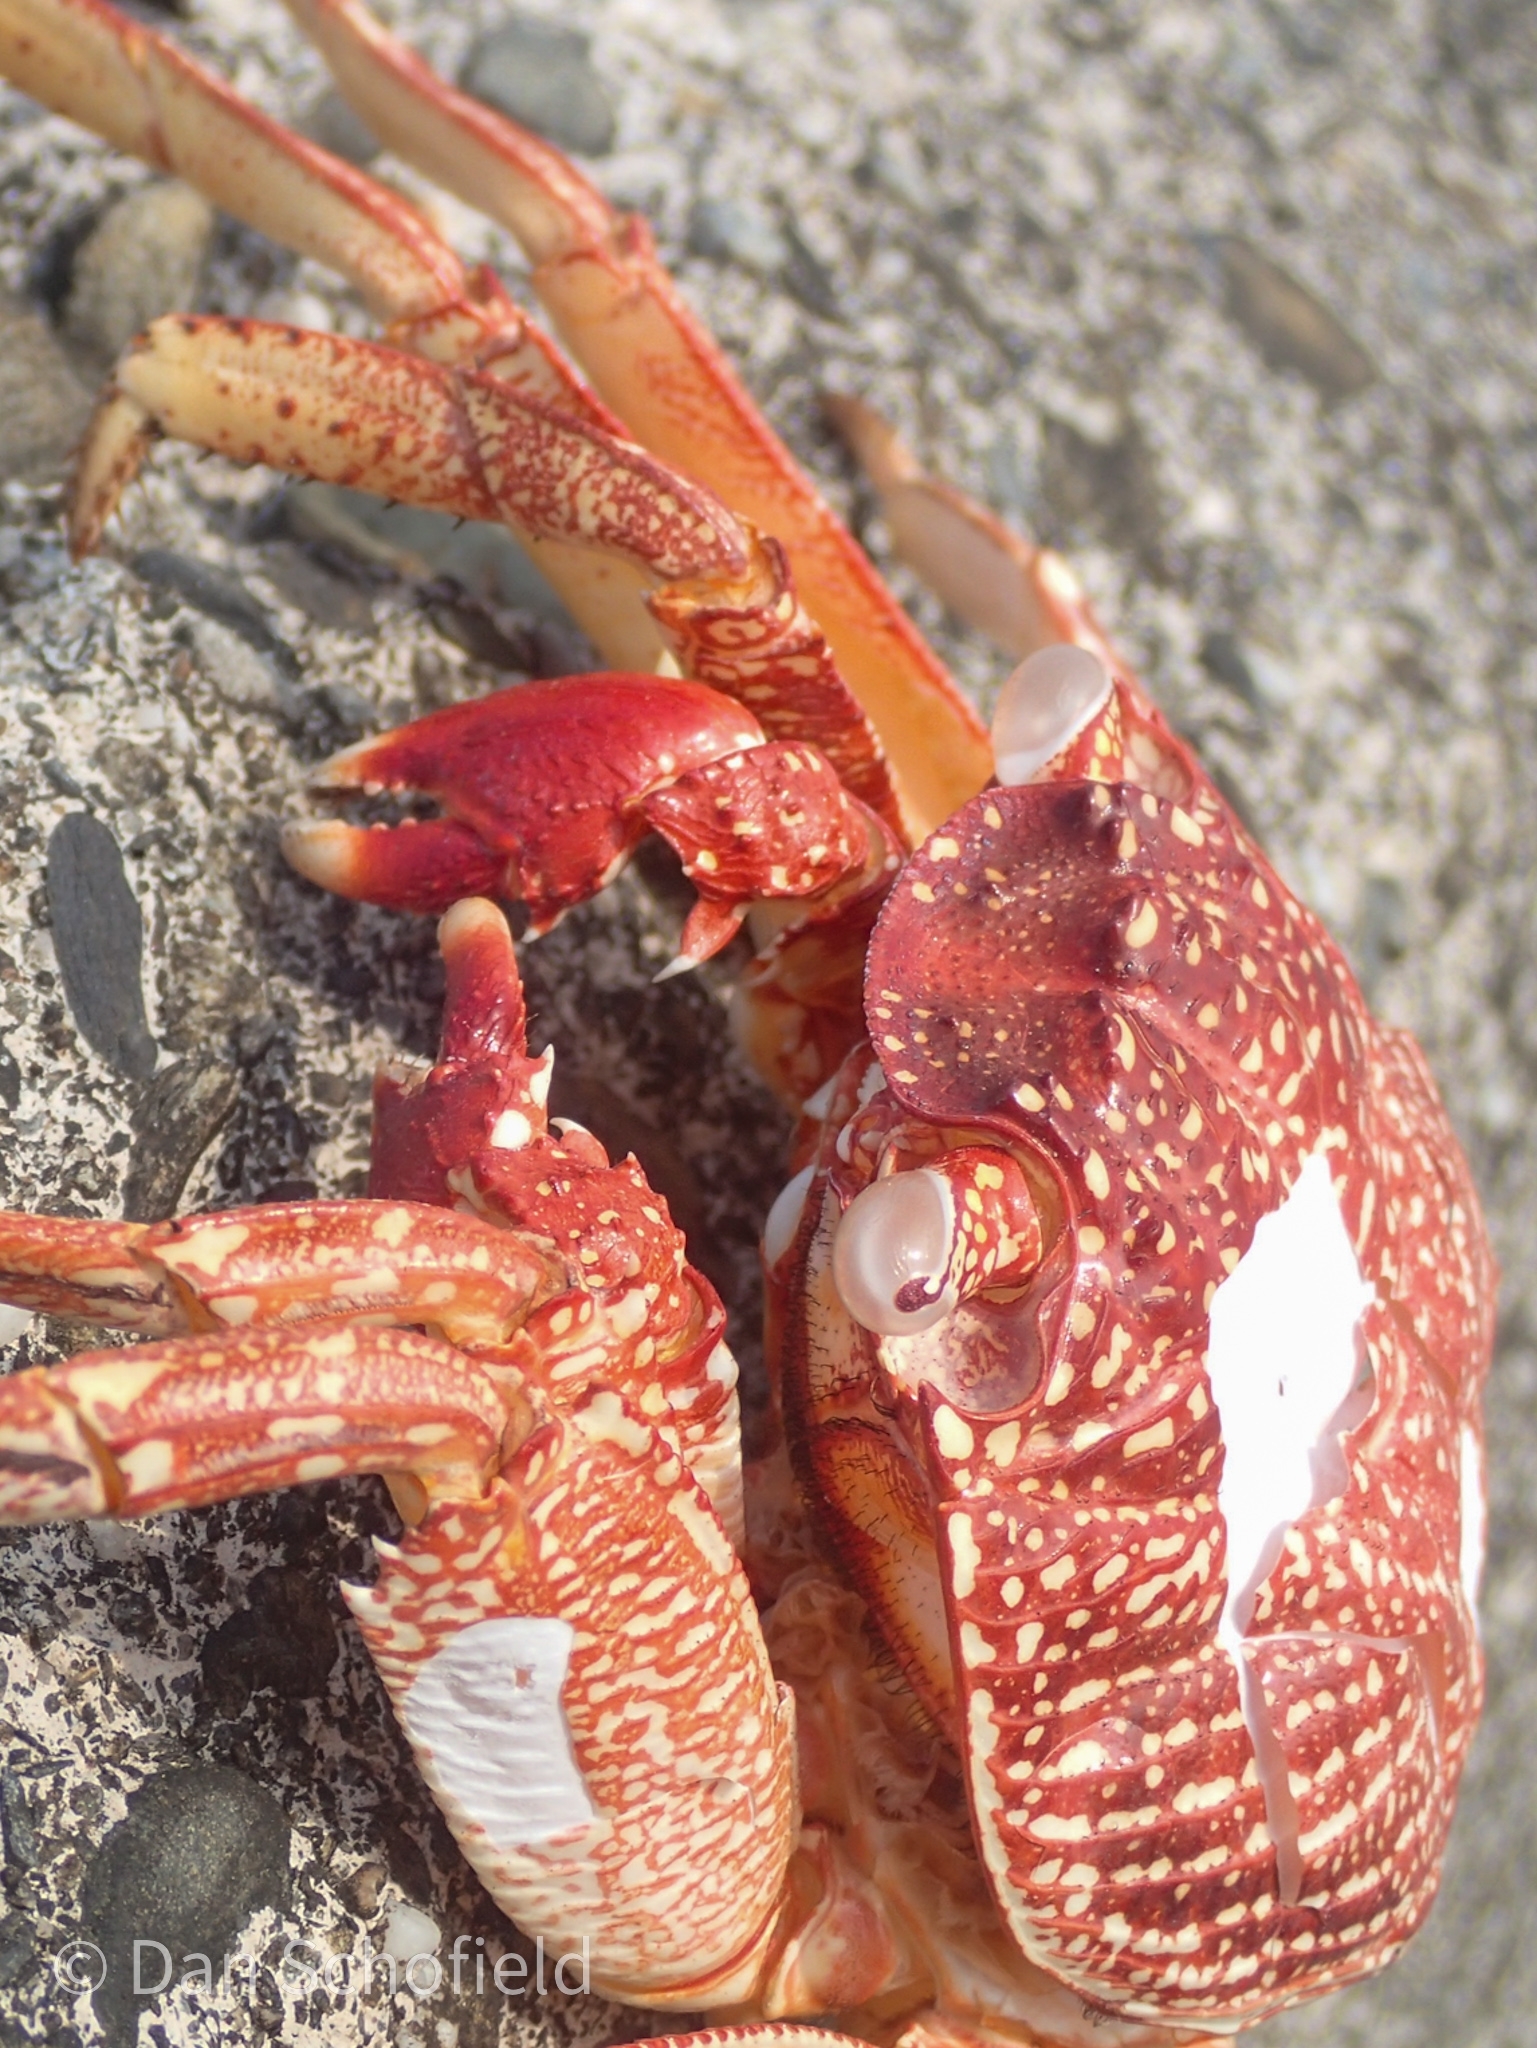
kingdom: Animalia
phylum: Arthropoda
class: Malacostraca
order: Decapoda
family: Grapsidae
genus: Grapsus
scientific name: Grapsus tenuicrustatus
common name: Natal lightfoot crab
